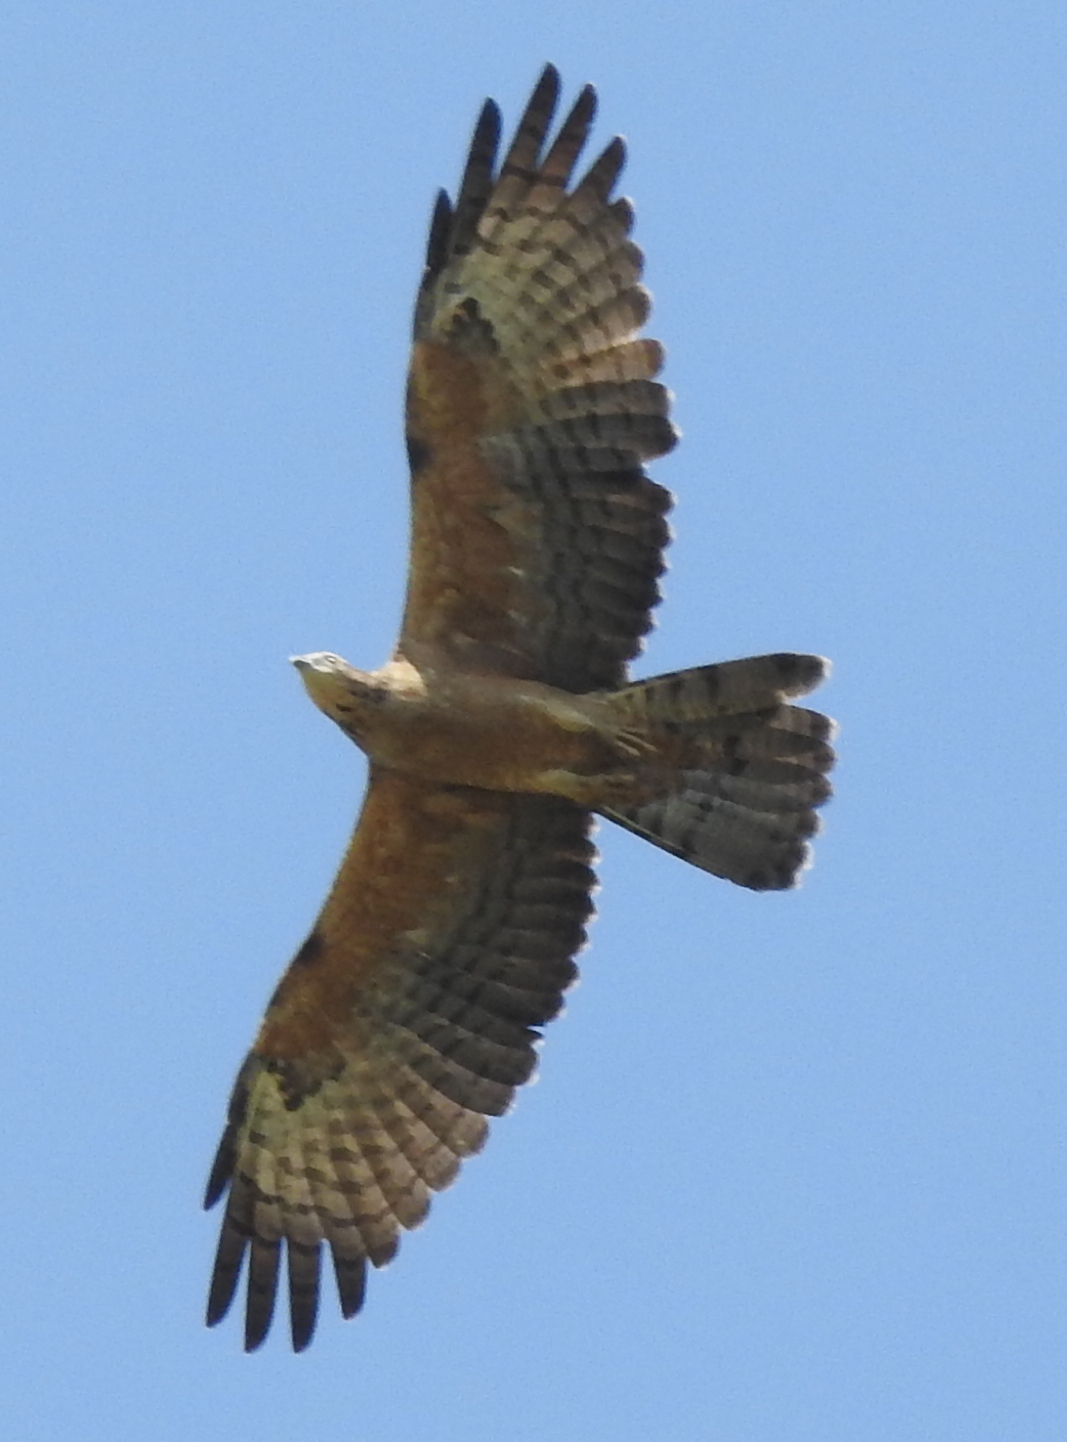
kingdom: Animalia
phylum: Chordata
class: Aves
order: Accipitriformes
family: Accipitridae
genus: Pernis
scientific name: Pernis ptilorhynchus
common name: Crested honey buzzard
